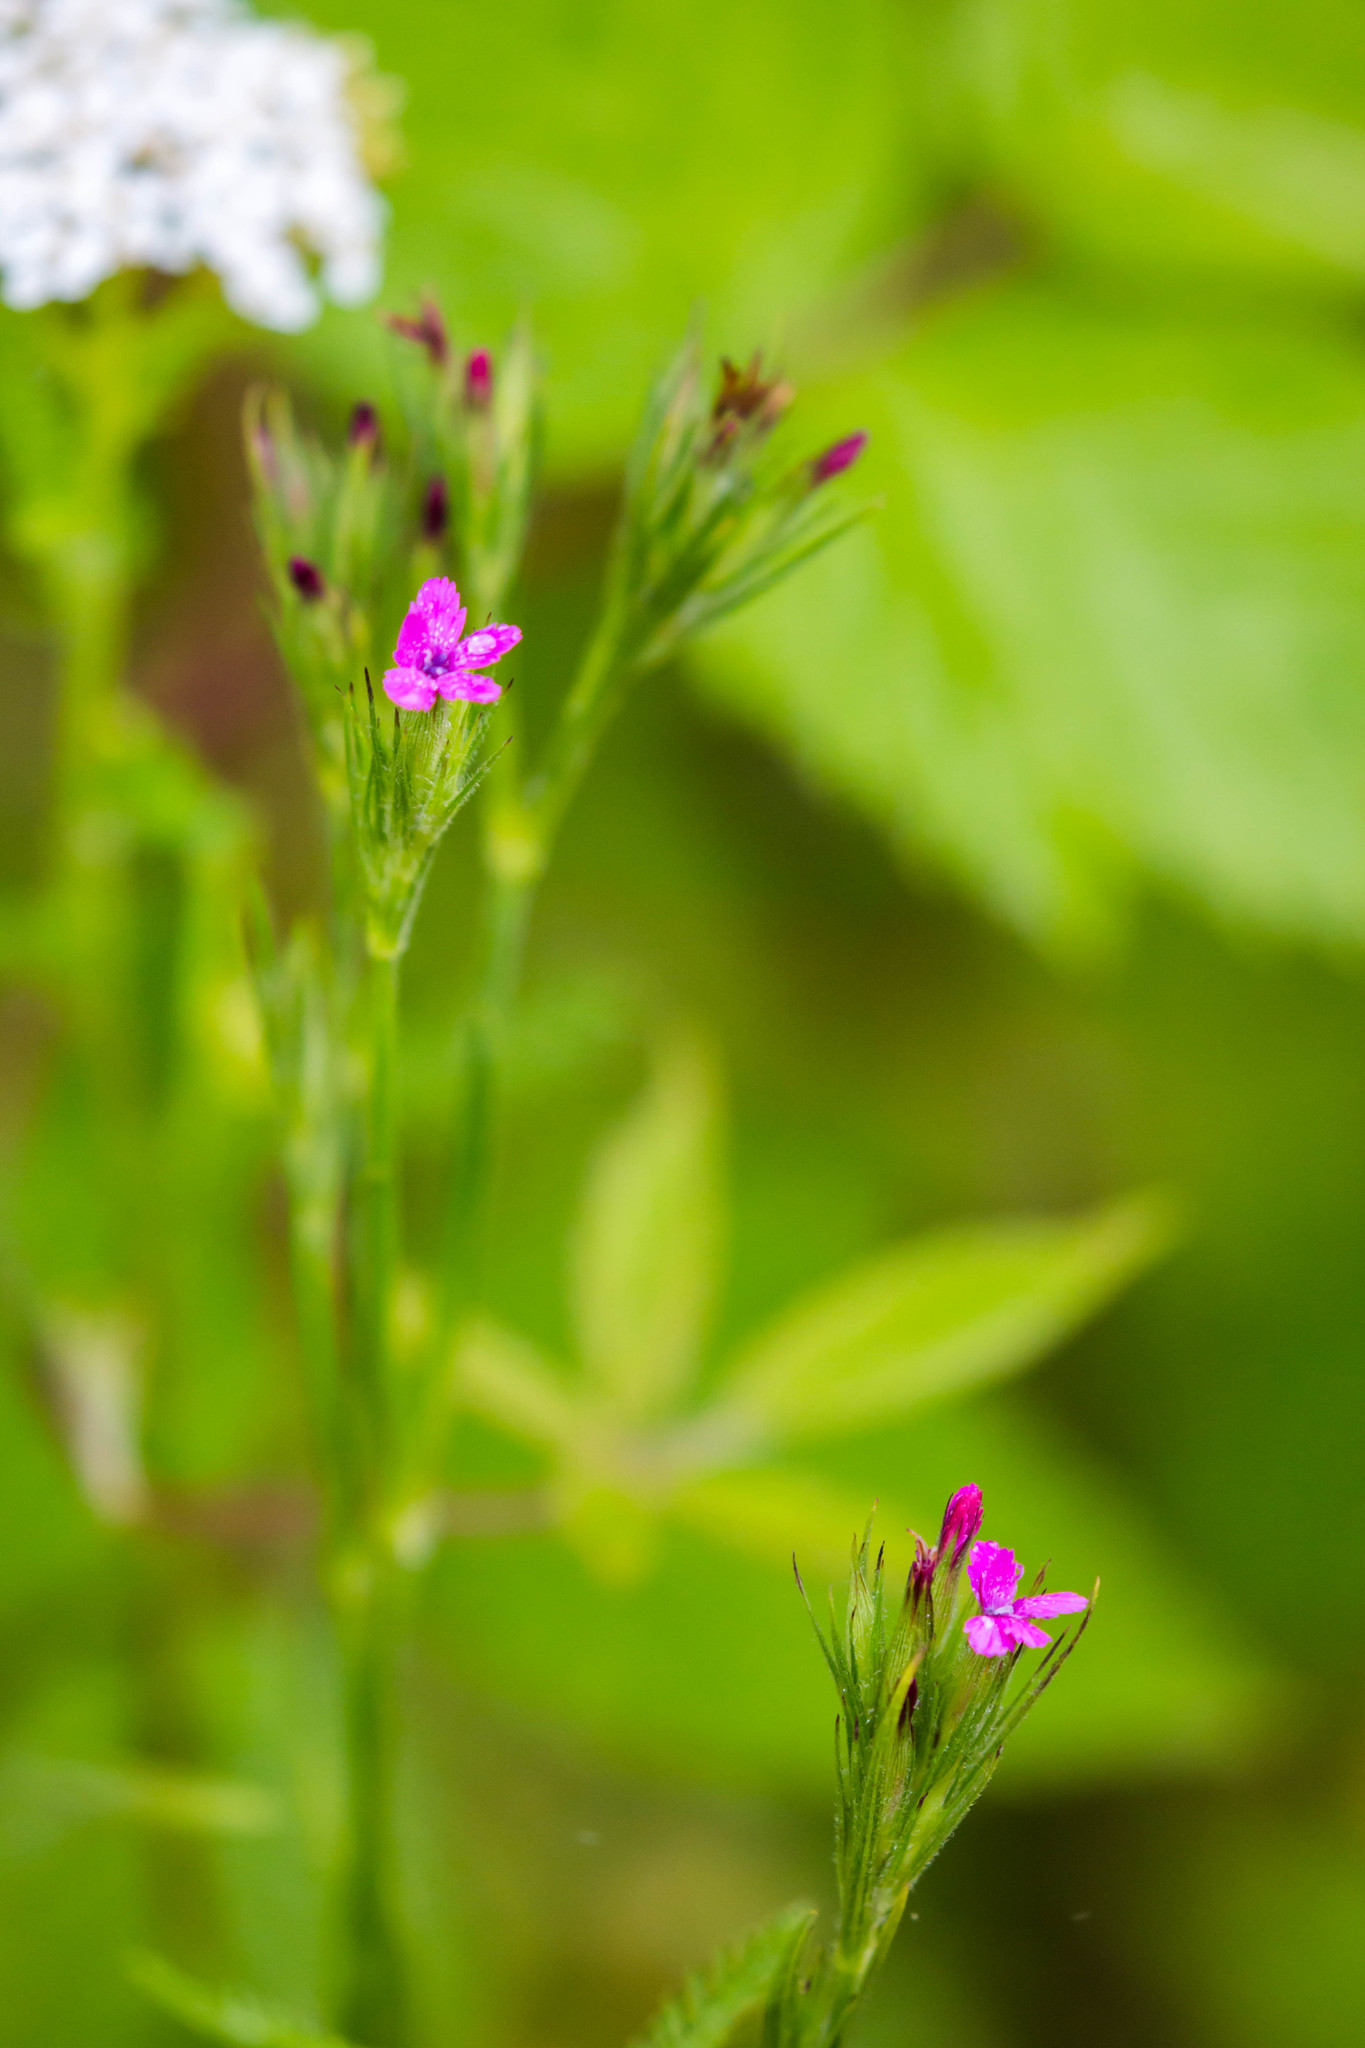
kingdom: Plantae
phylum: Tracheophyta
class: Magnoliopsida
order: Caryophyllales
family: Caryophyllaceae
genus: Dianthus
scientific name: Dianthus armeria
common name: Deptford pink
